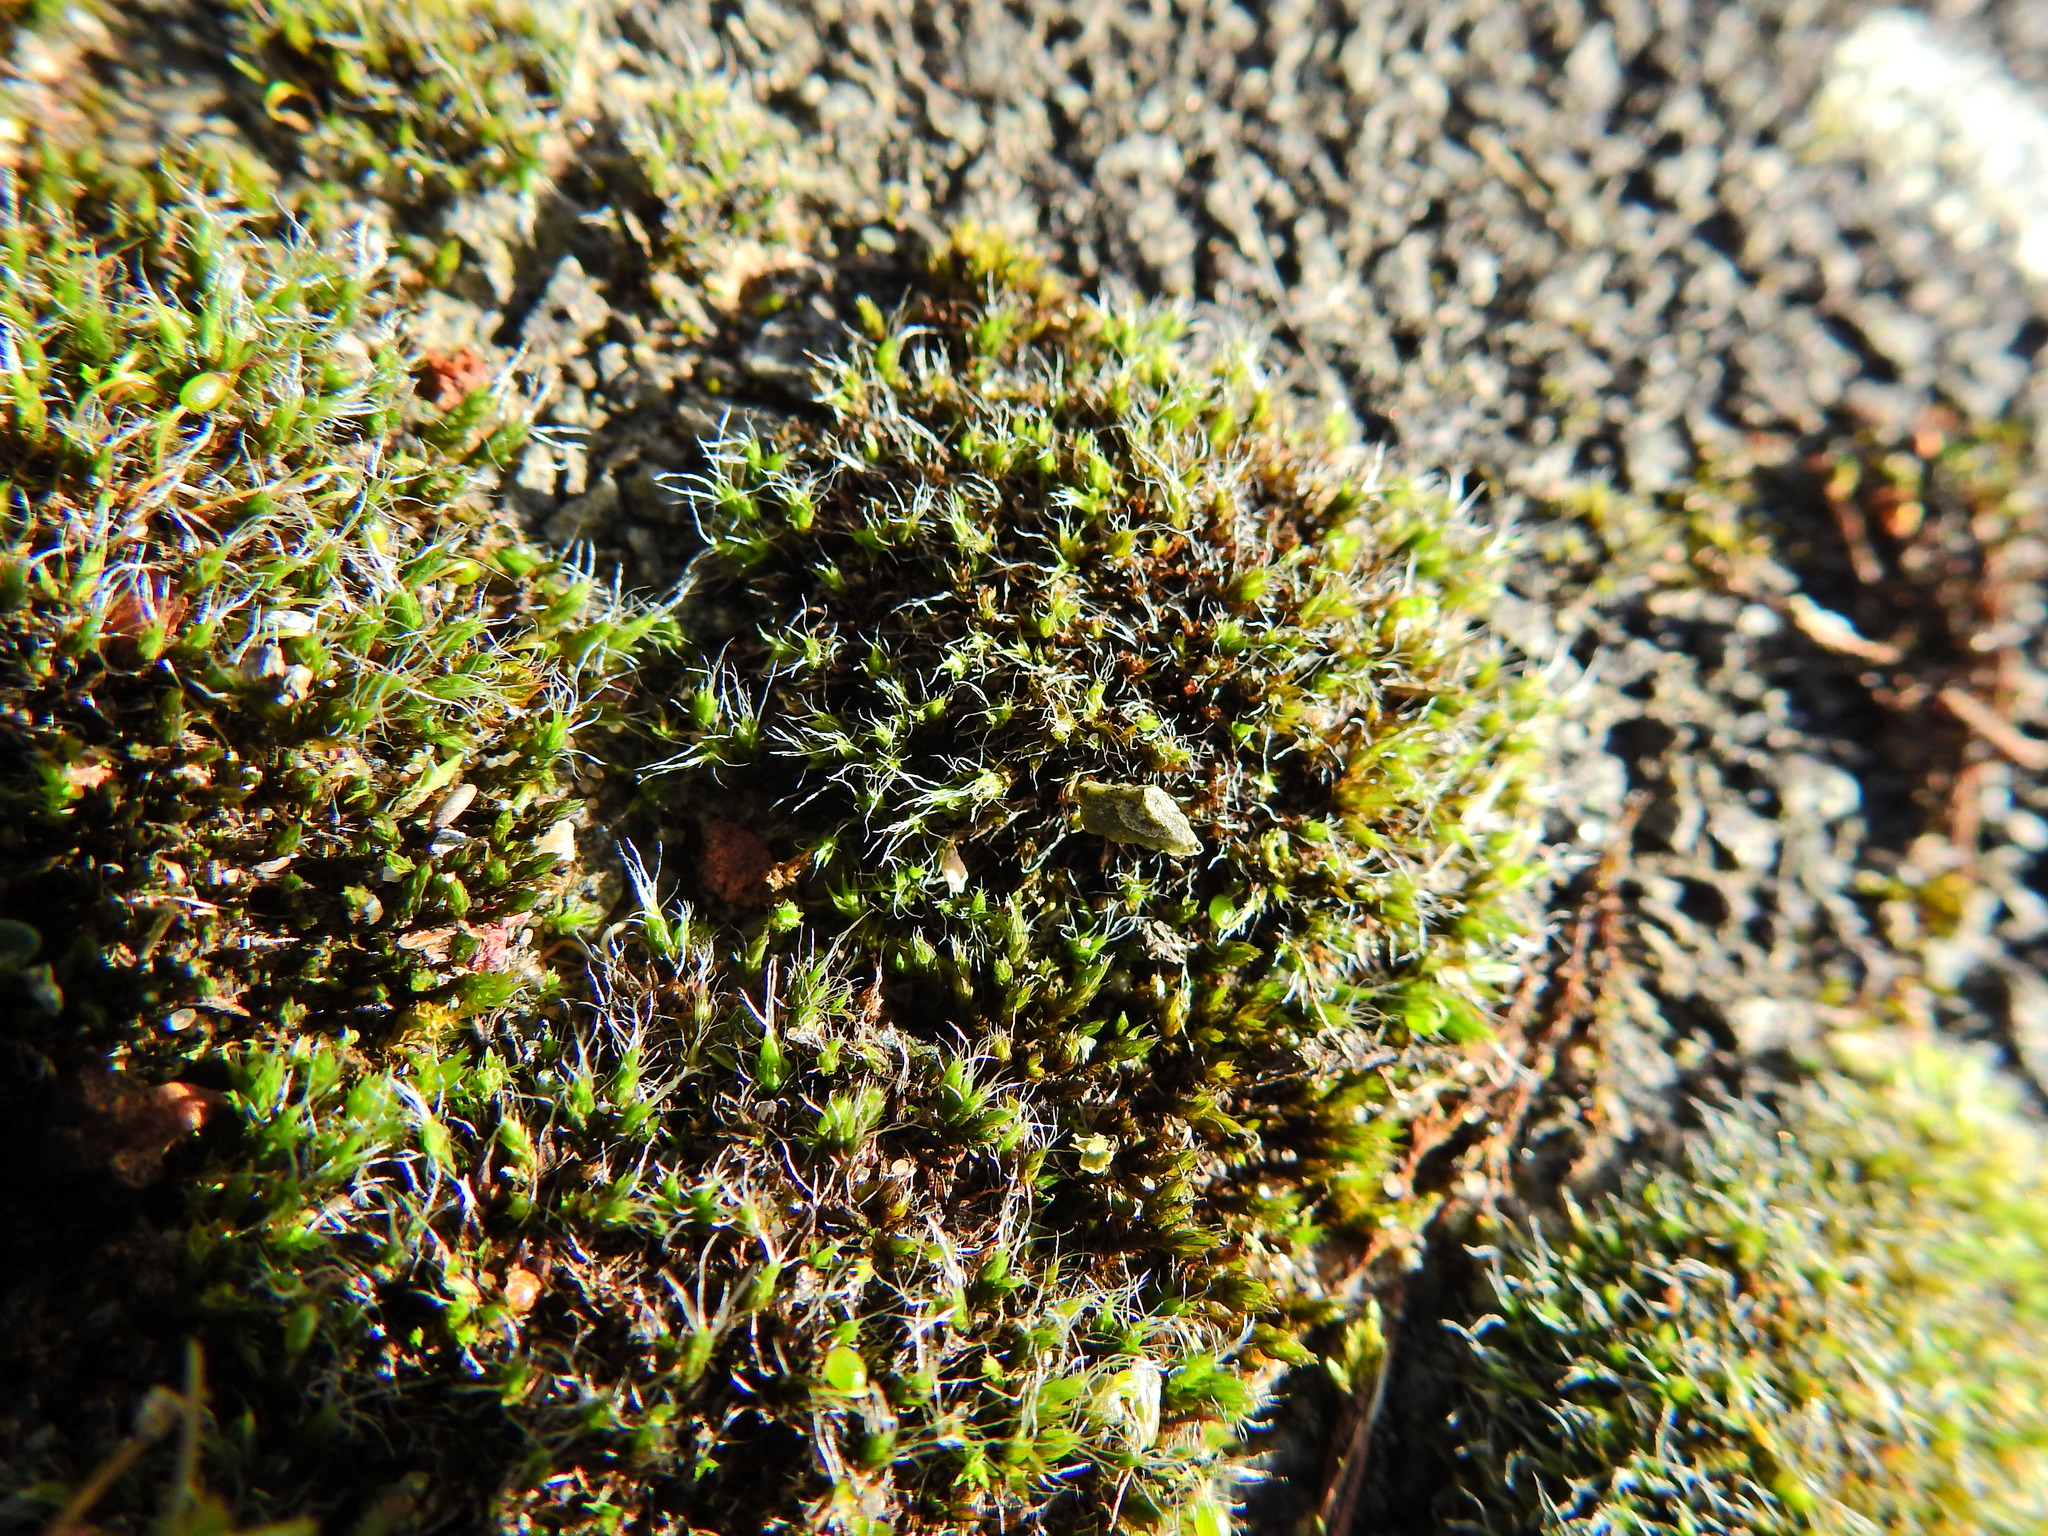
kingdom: Plantae
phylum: Bryophyta
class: Bryopsida
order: Grimmiales
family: Grimmiaceae
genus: Grimmia
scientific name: Grimmia pulvinata
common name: Grey-cushioned grimmia
